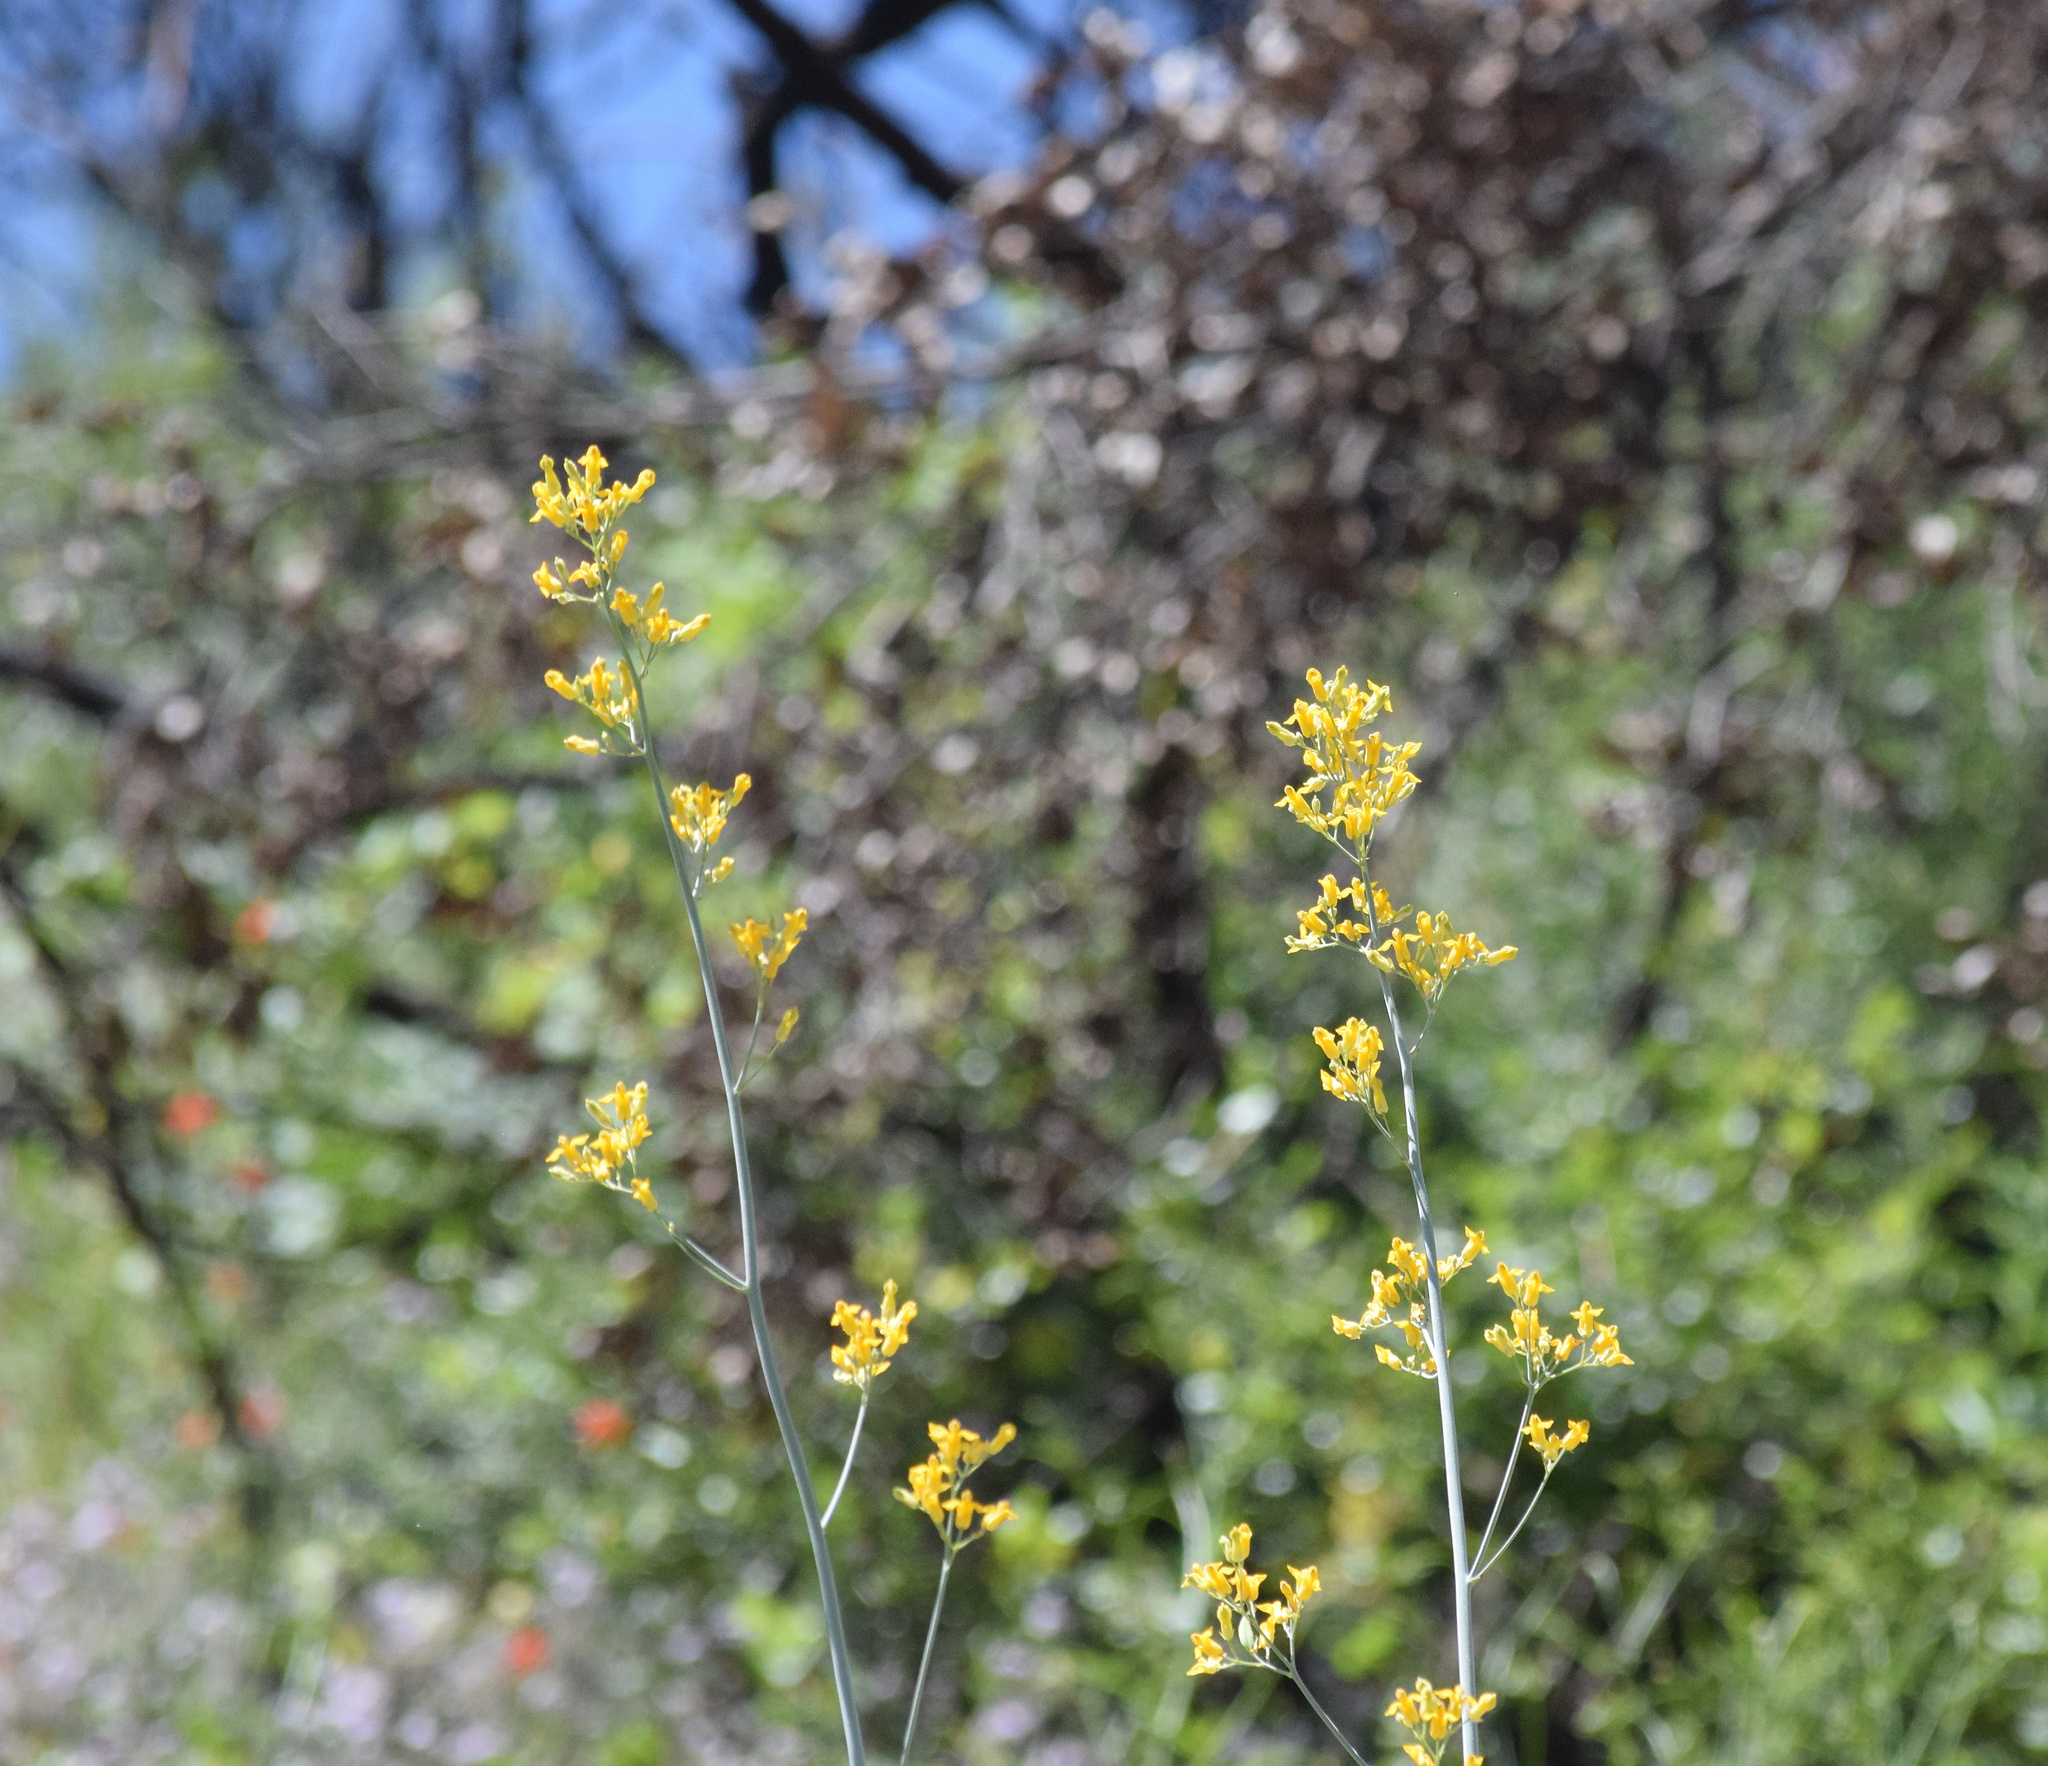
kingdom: Plantae
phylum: Tracheophyta
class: Magnoliopsida
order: Ranunculales
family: Papaveraceae
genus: Ehrendorferia
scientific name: Ehrendorferia chrysantha
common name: Golden eardrops
